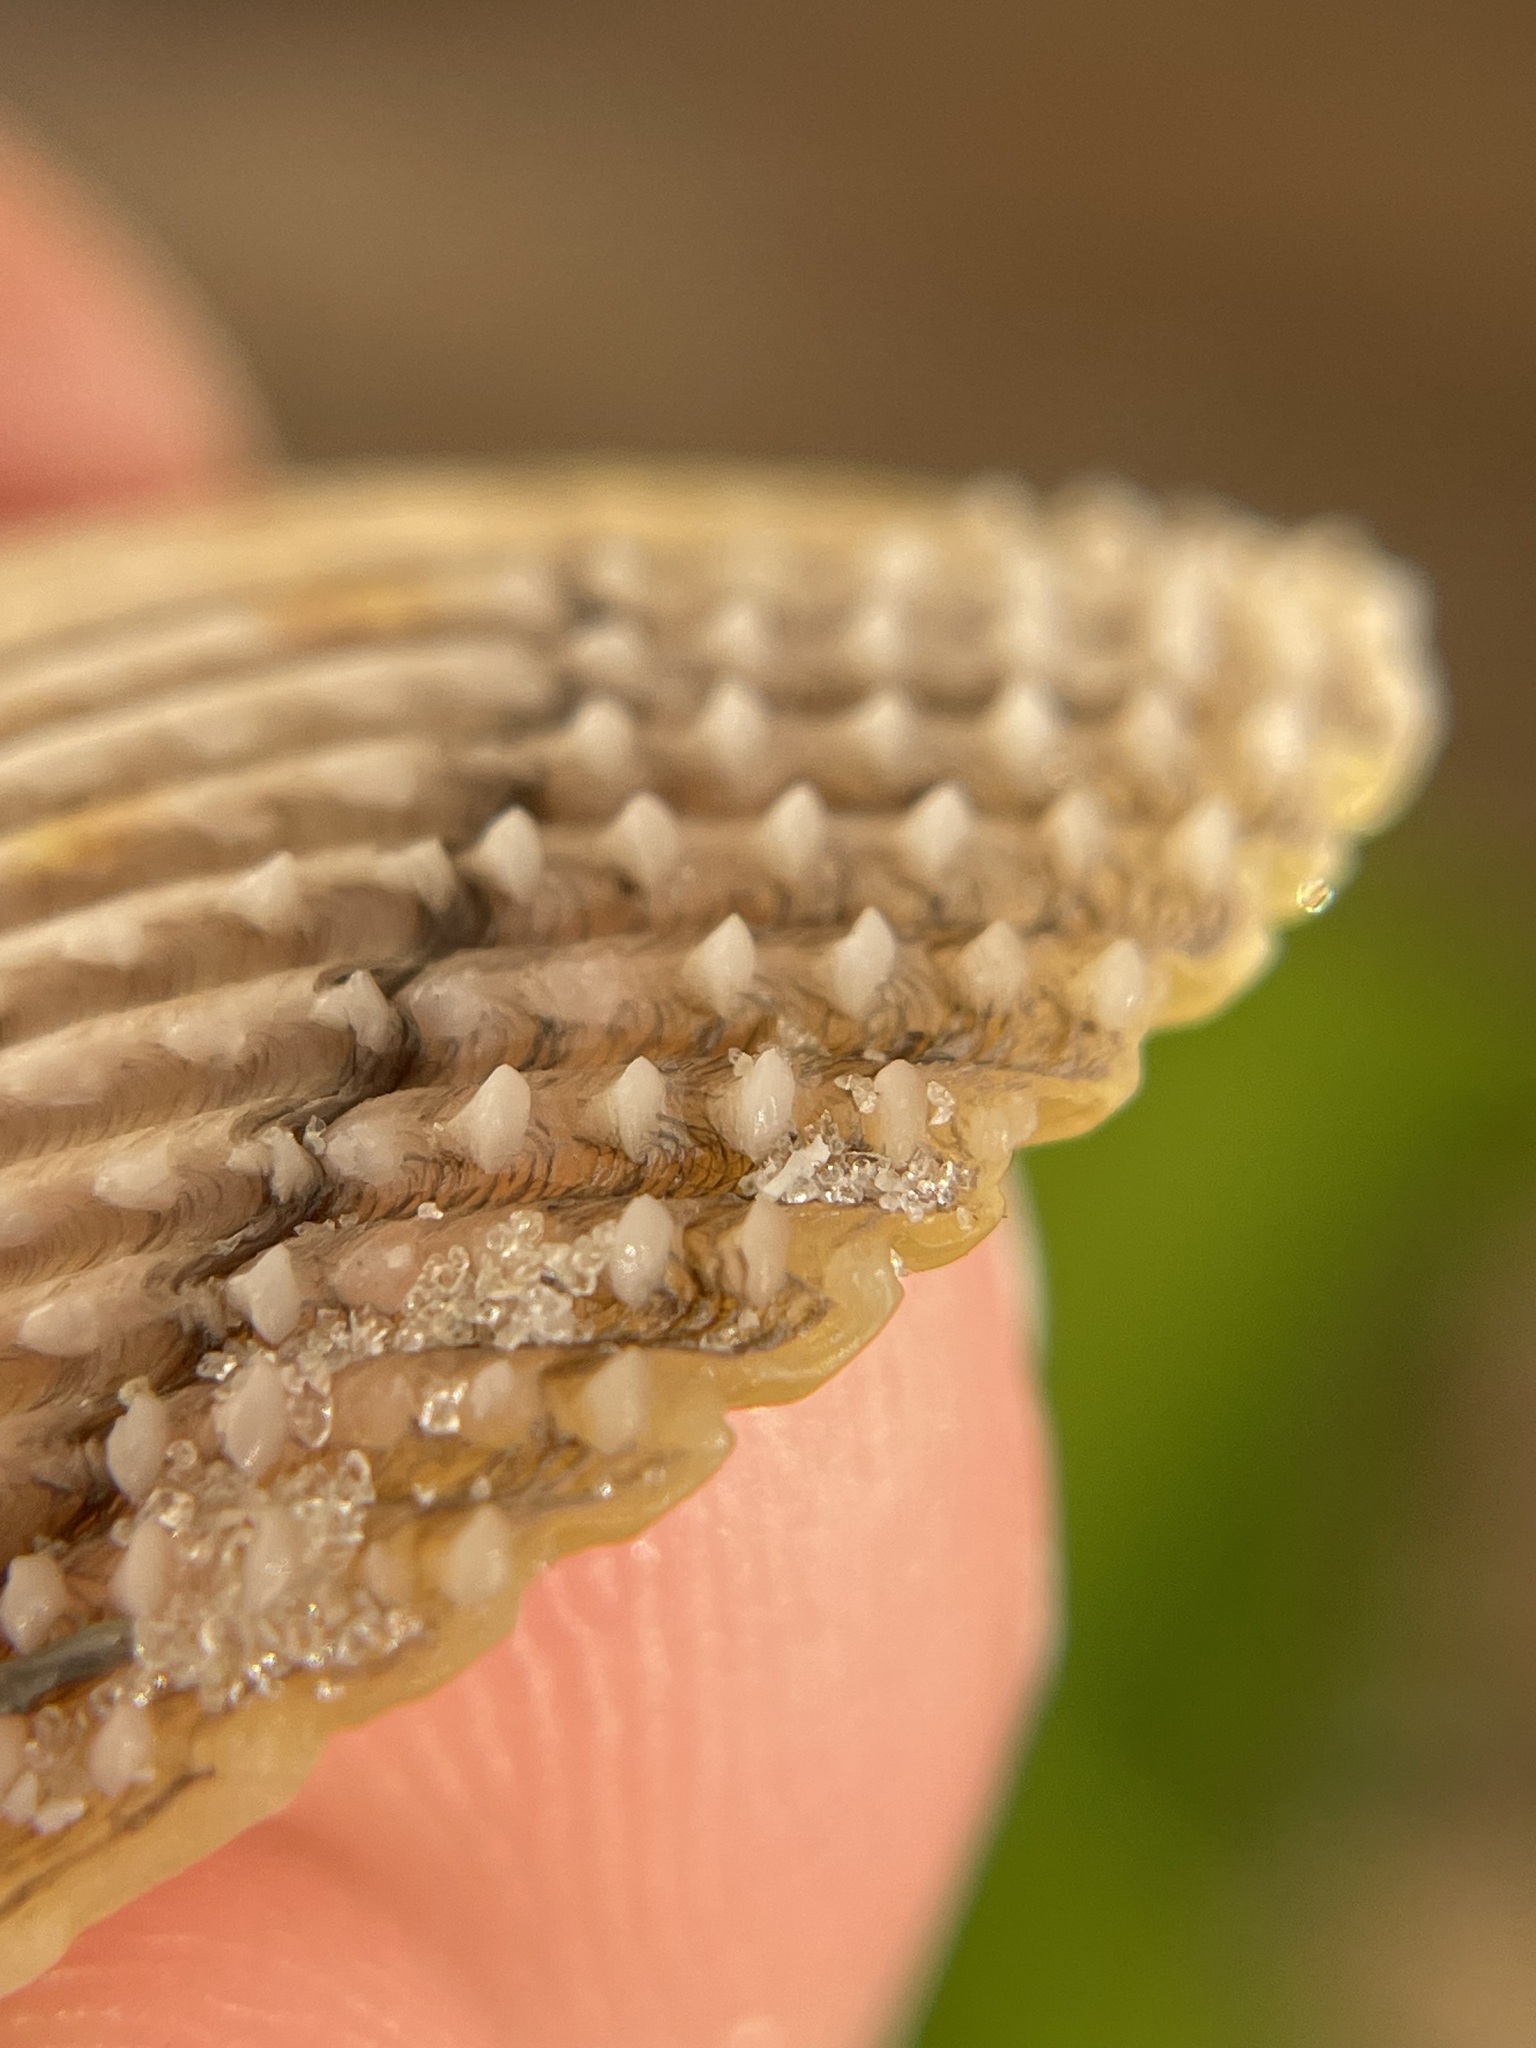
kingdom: Animalia
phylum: Mollusca
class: Bivalvia
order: Cardiida
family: Cardiidae
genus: Dallocardia
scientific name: Dallocardia muricata
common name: Yellow pricklycockle
